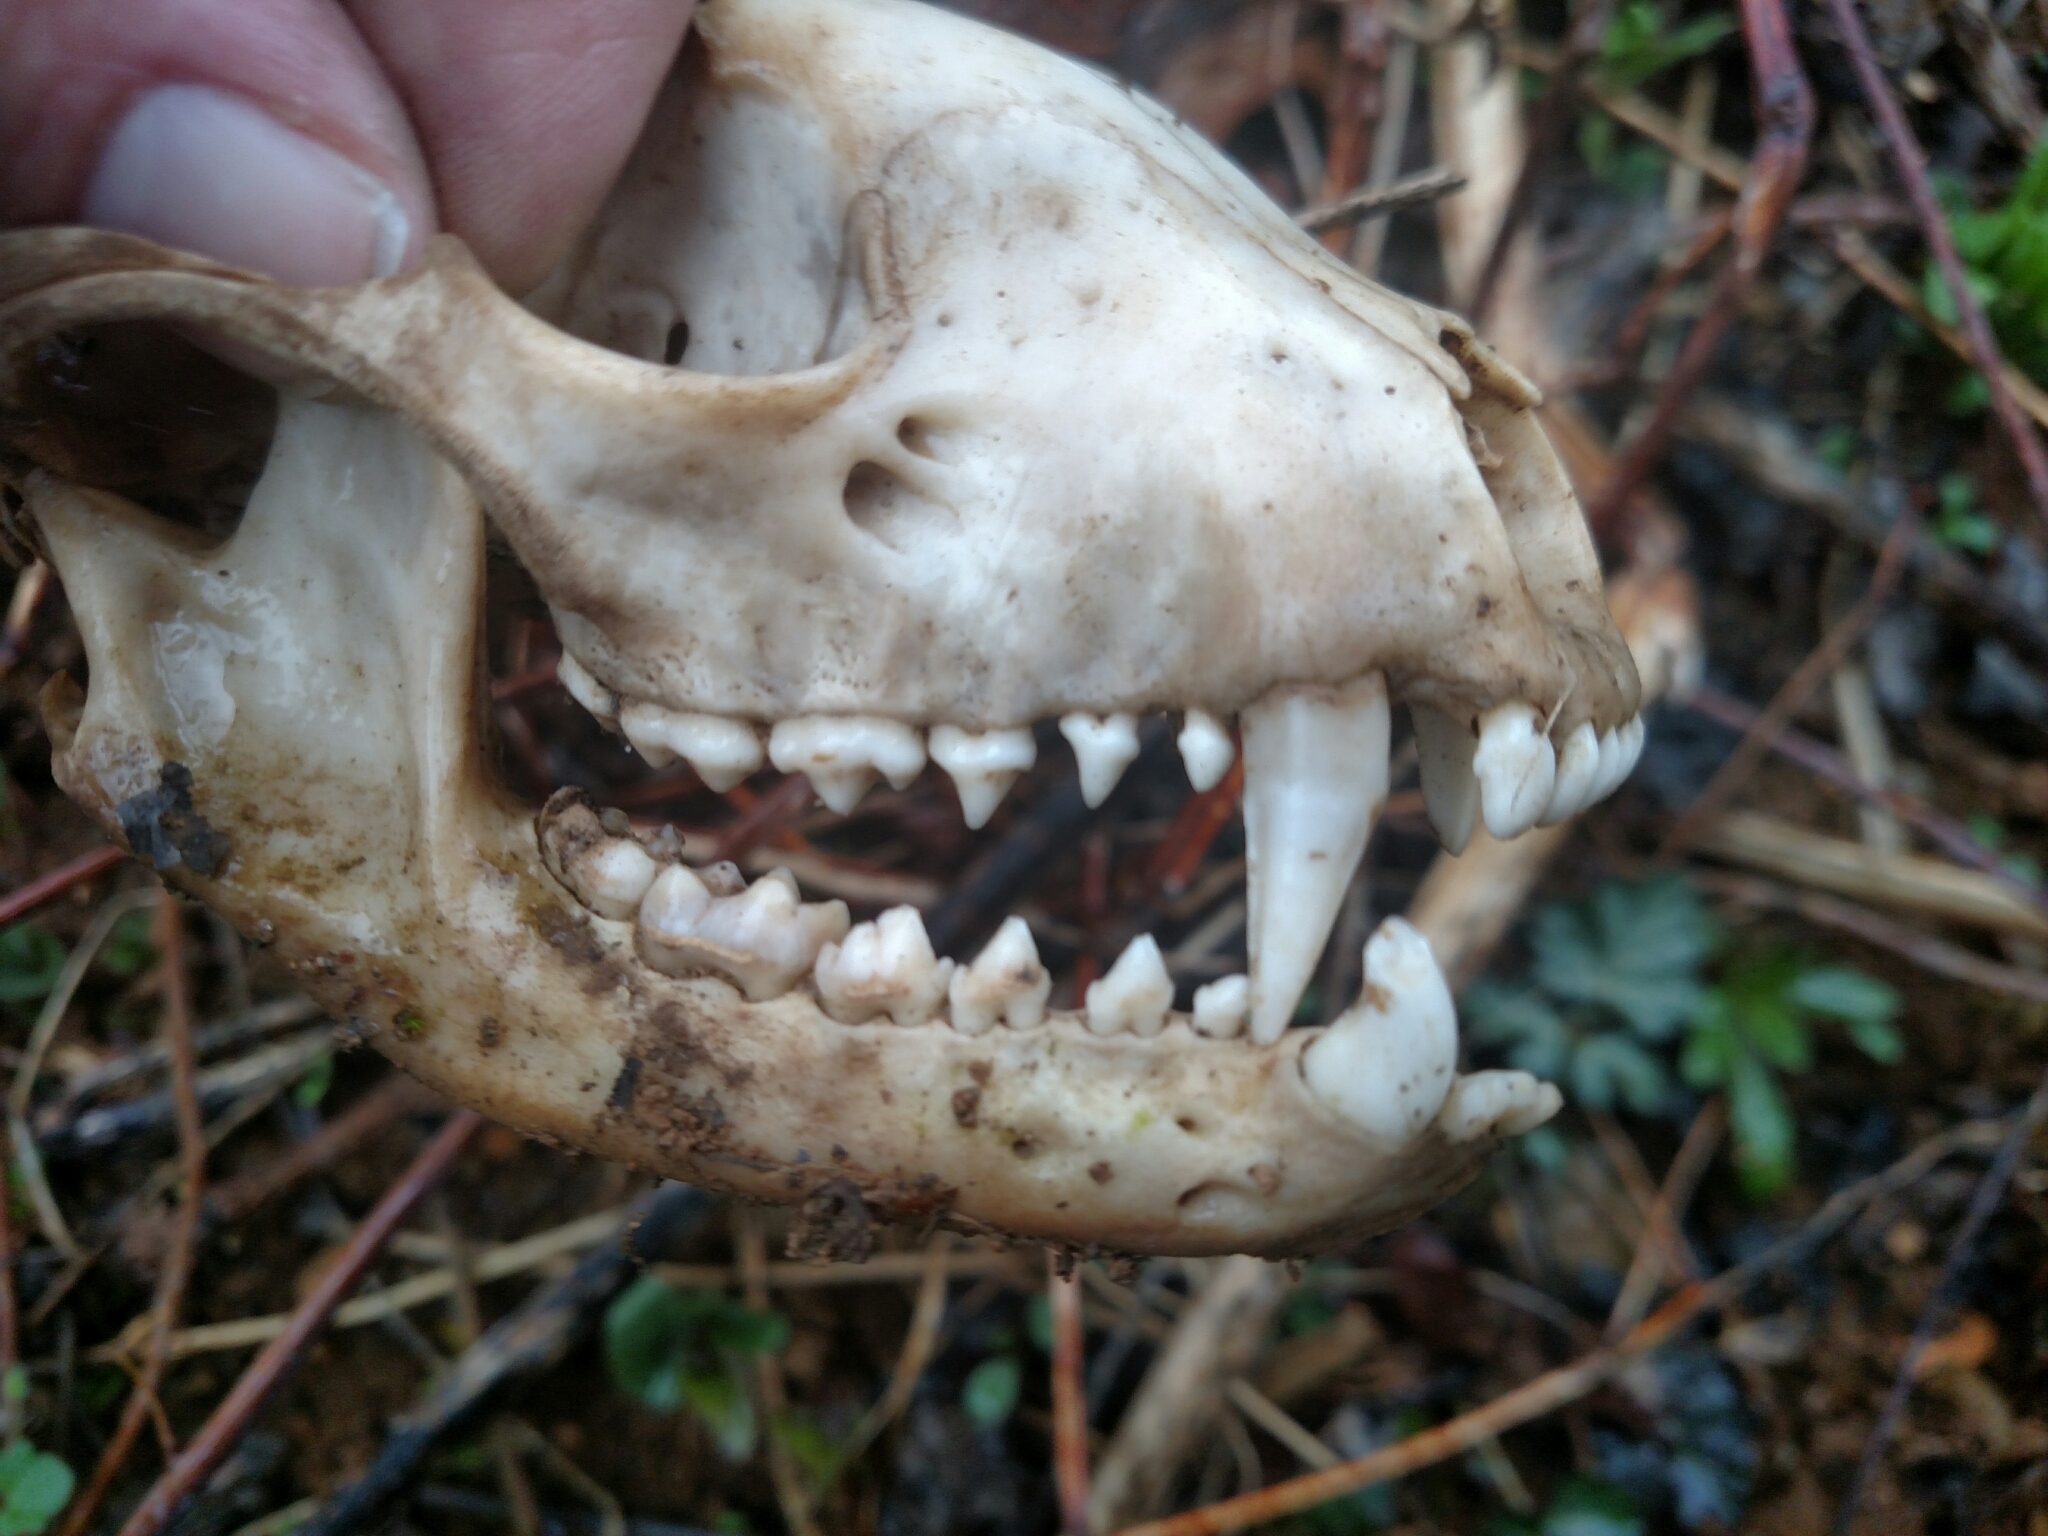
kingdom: Animalia
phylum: Chordata
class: Mammalia
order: Carnivora
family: Procyonidae
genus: Procyon
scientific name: Procyon lotor
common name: Raccoon
